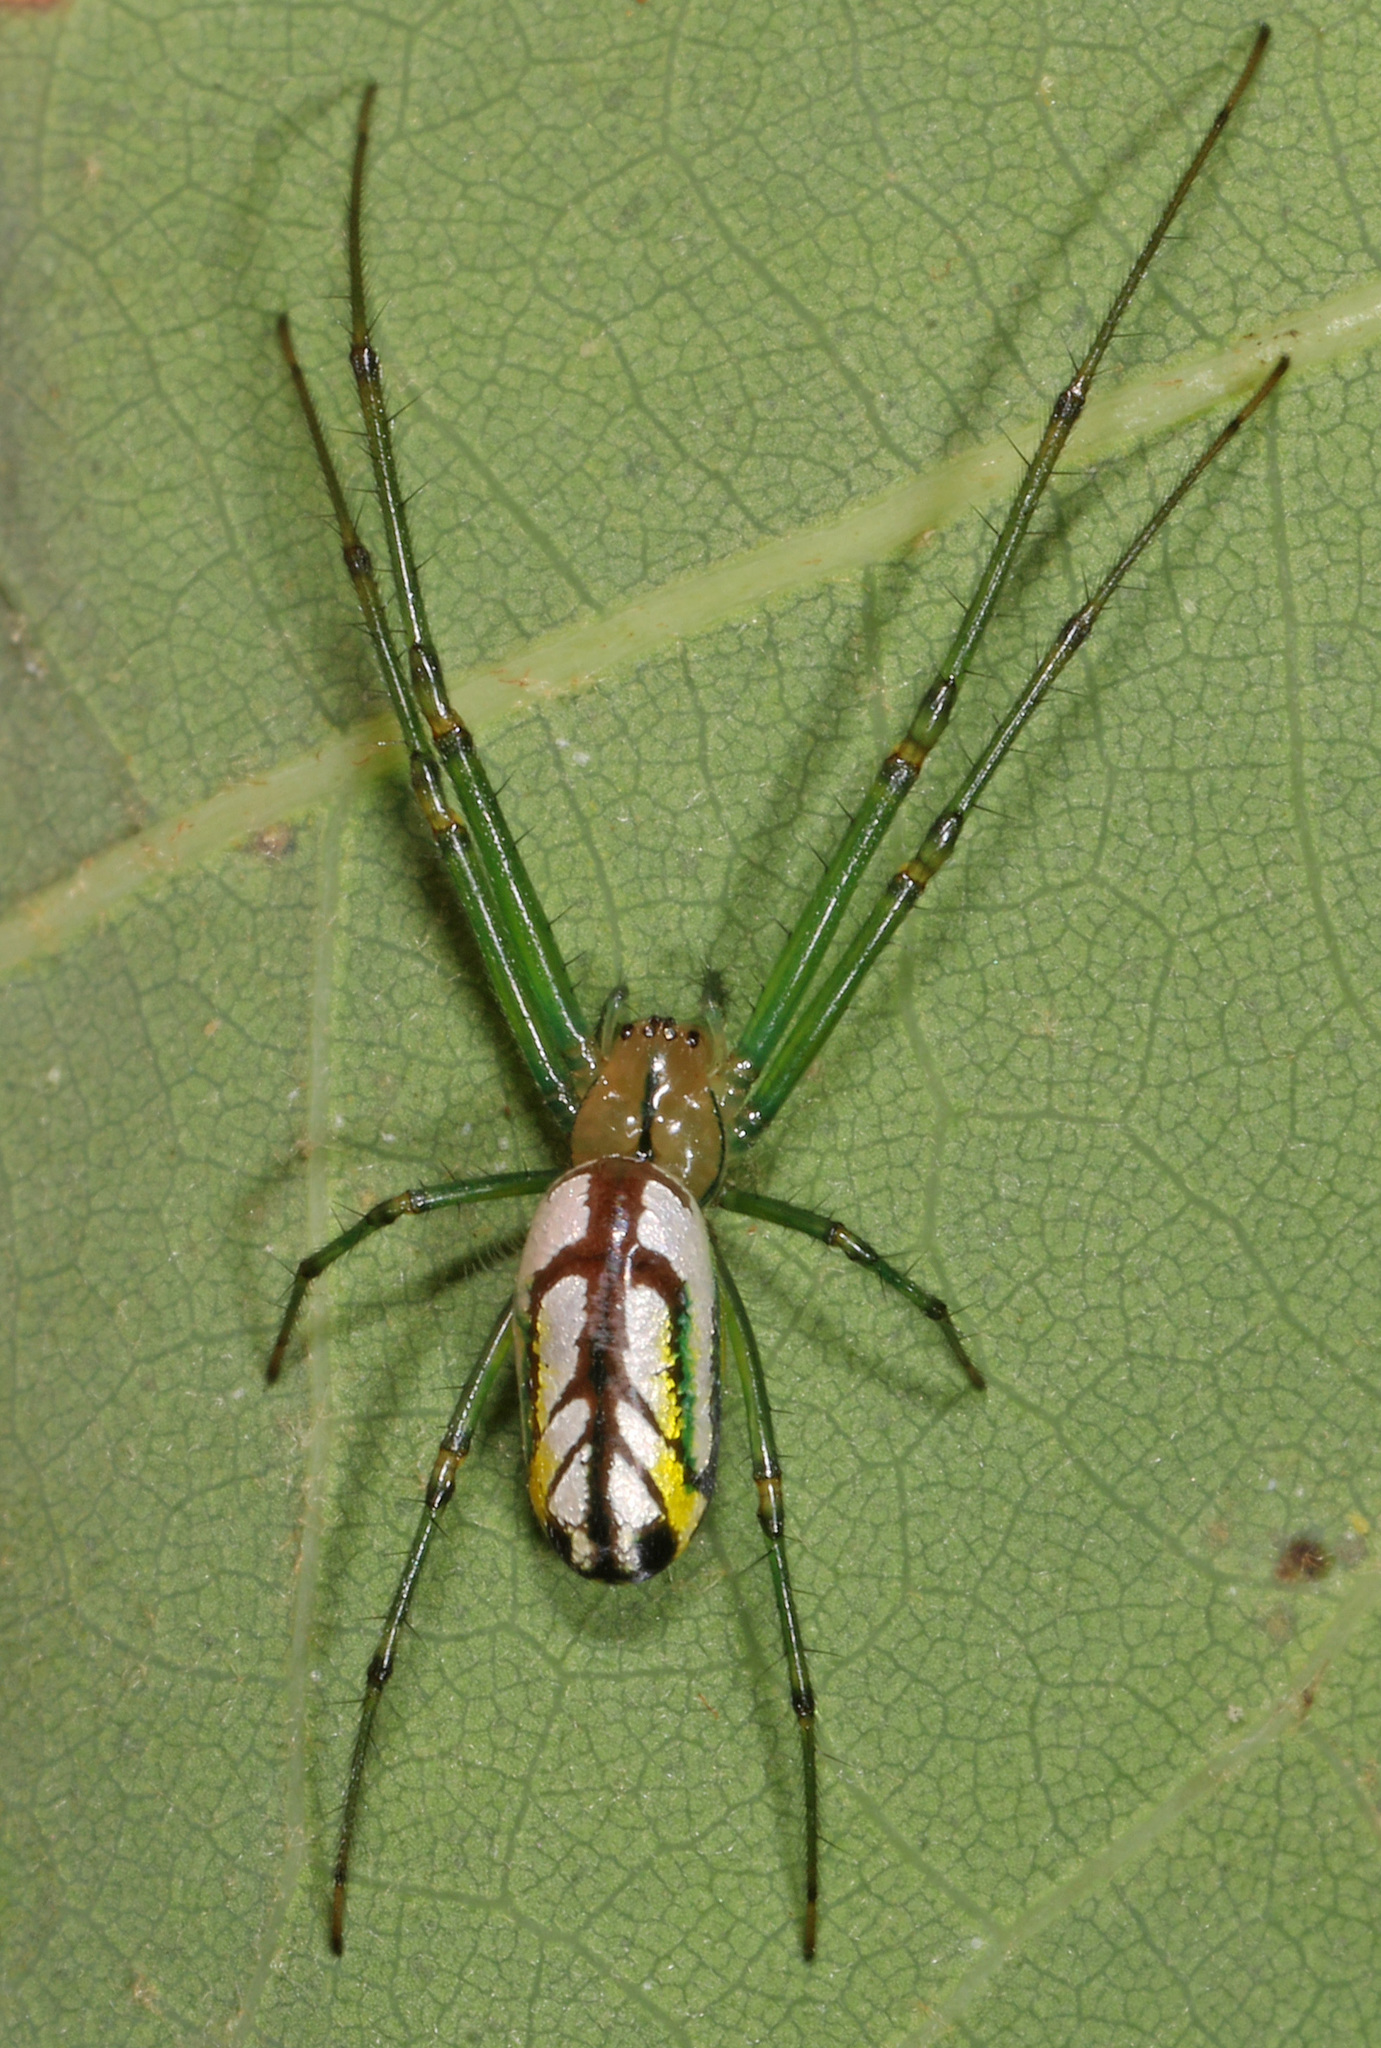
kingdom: Animalia
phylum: Arthropoda
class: Arachnida
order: Araneae
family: Tetragnathidae
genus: Leucauge
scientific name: Leucauge venusta
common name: Longjawed orb weavers
